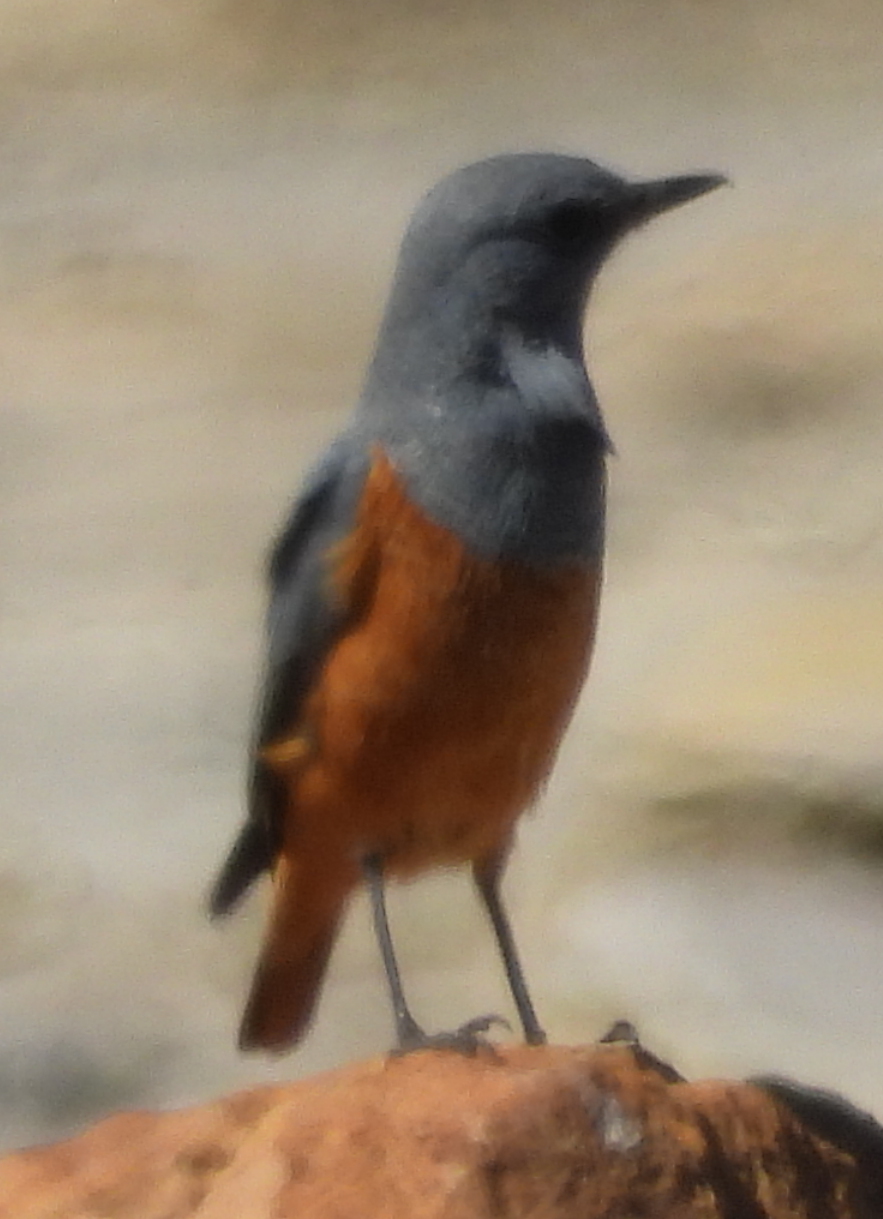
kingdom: Animalia
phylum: Chordata
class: Aves
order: Passeriformes
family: Muscicapidae
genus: Monticola
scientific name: Monticola explorator
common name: Sentinel rock thrush
